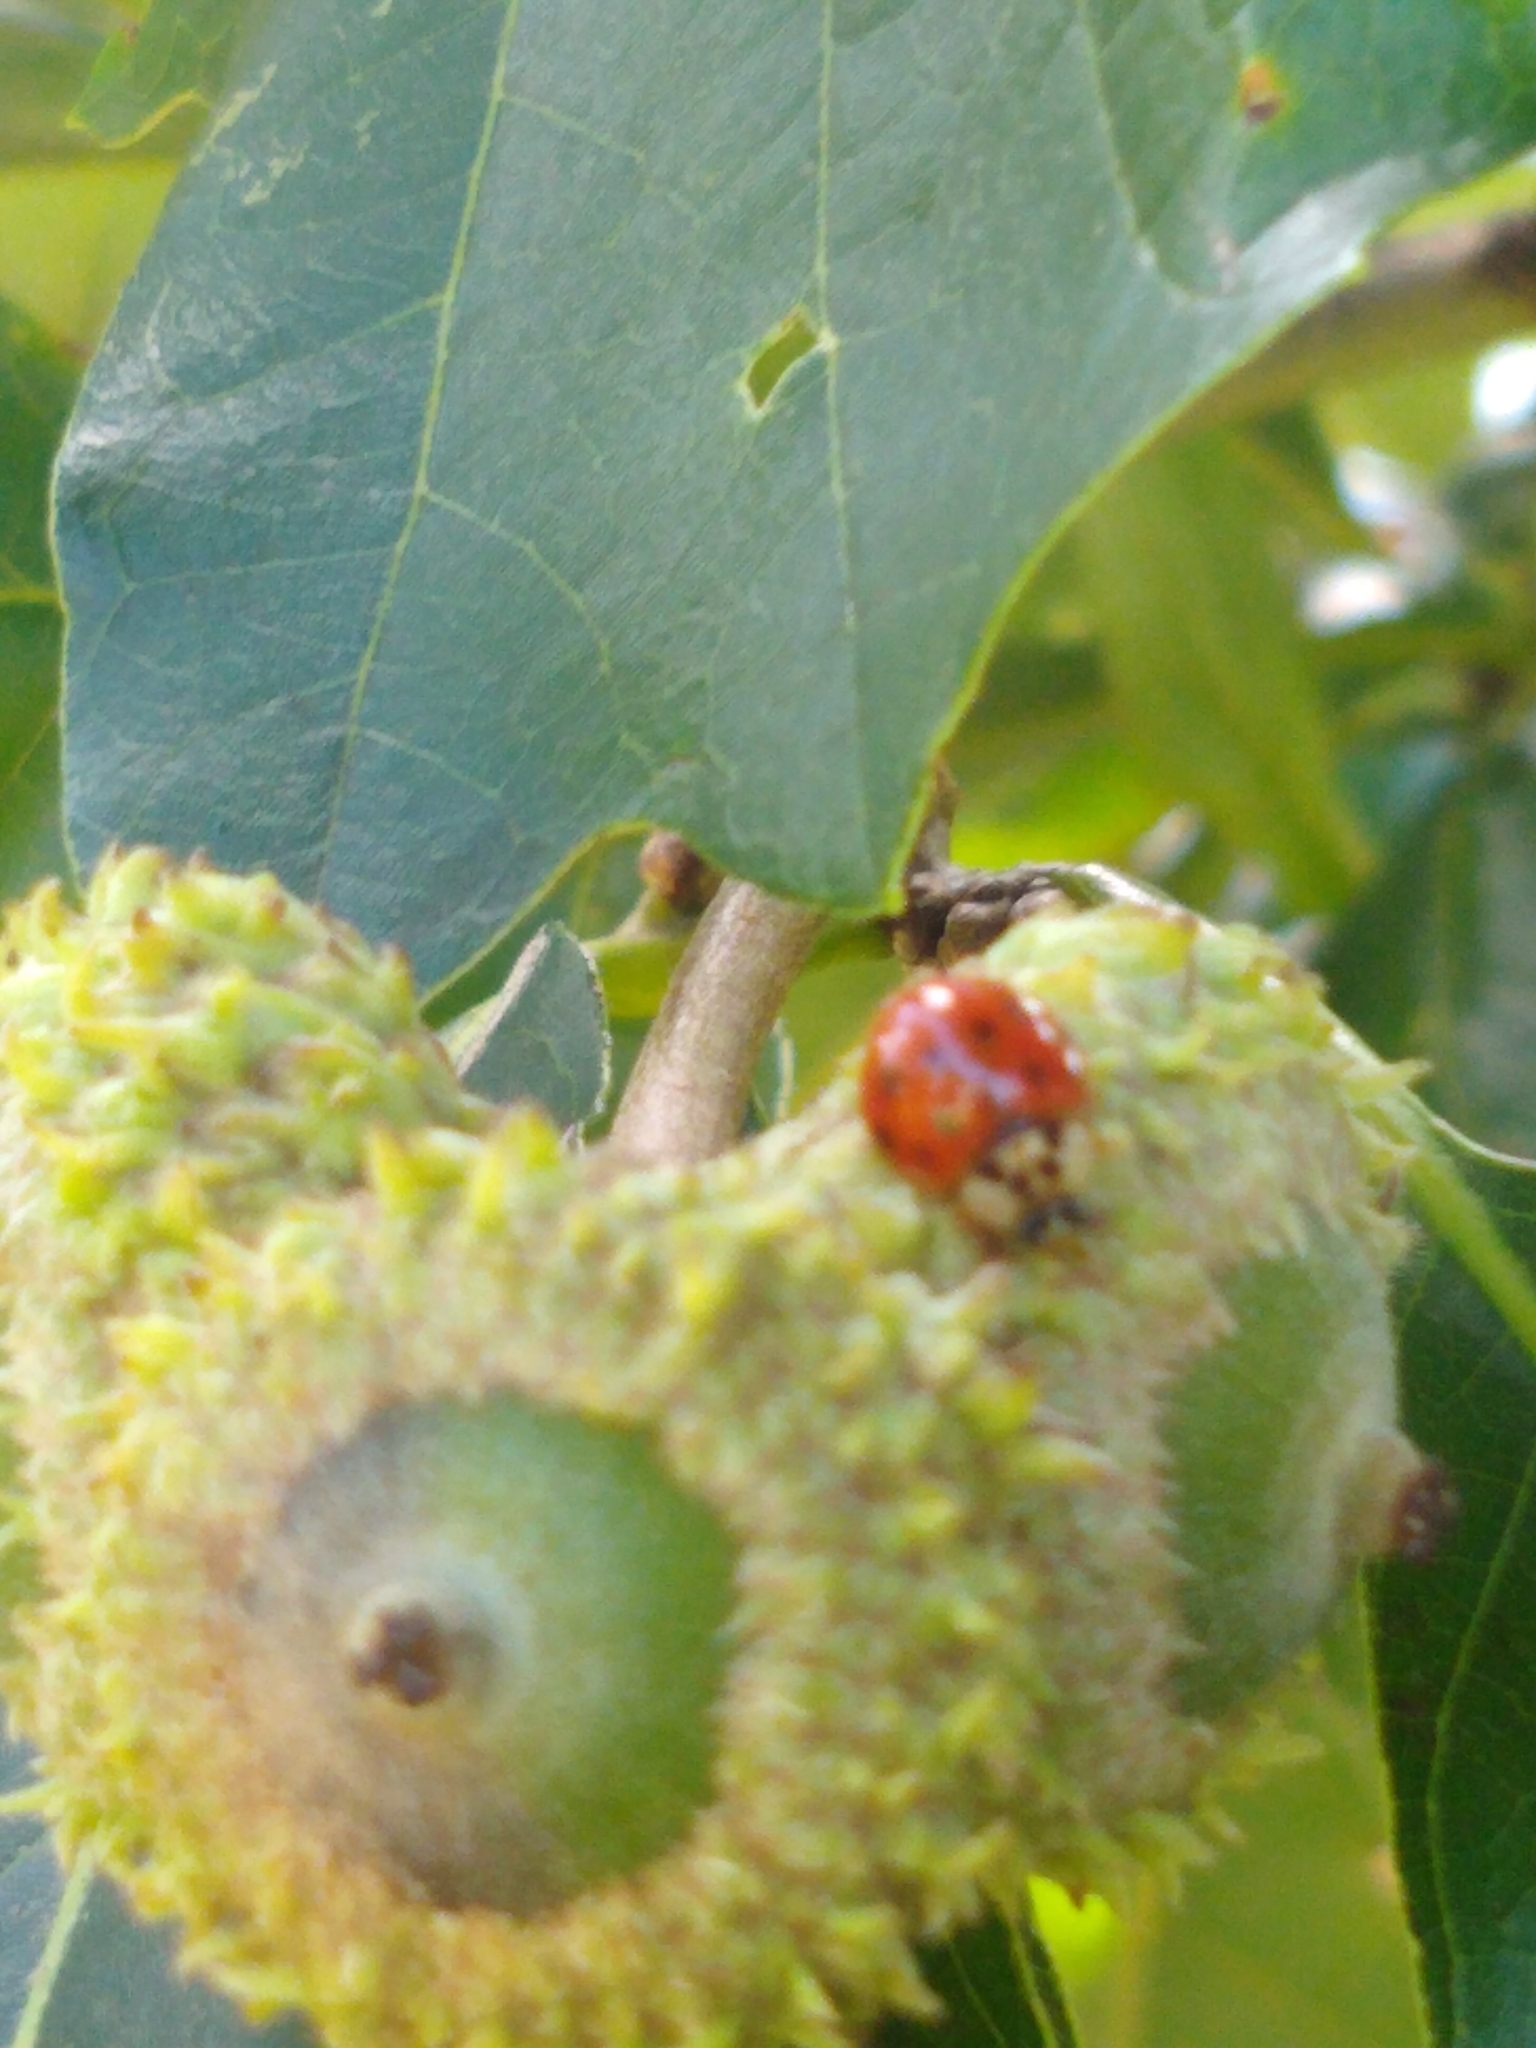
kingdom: Animalia
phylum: Arthropoda
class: Insecta
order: Coleoptera
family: Coccinellidae
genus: Harmonia
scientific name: Harmonia axyridis
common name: Harlequin ladybird
